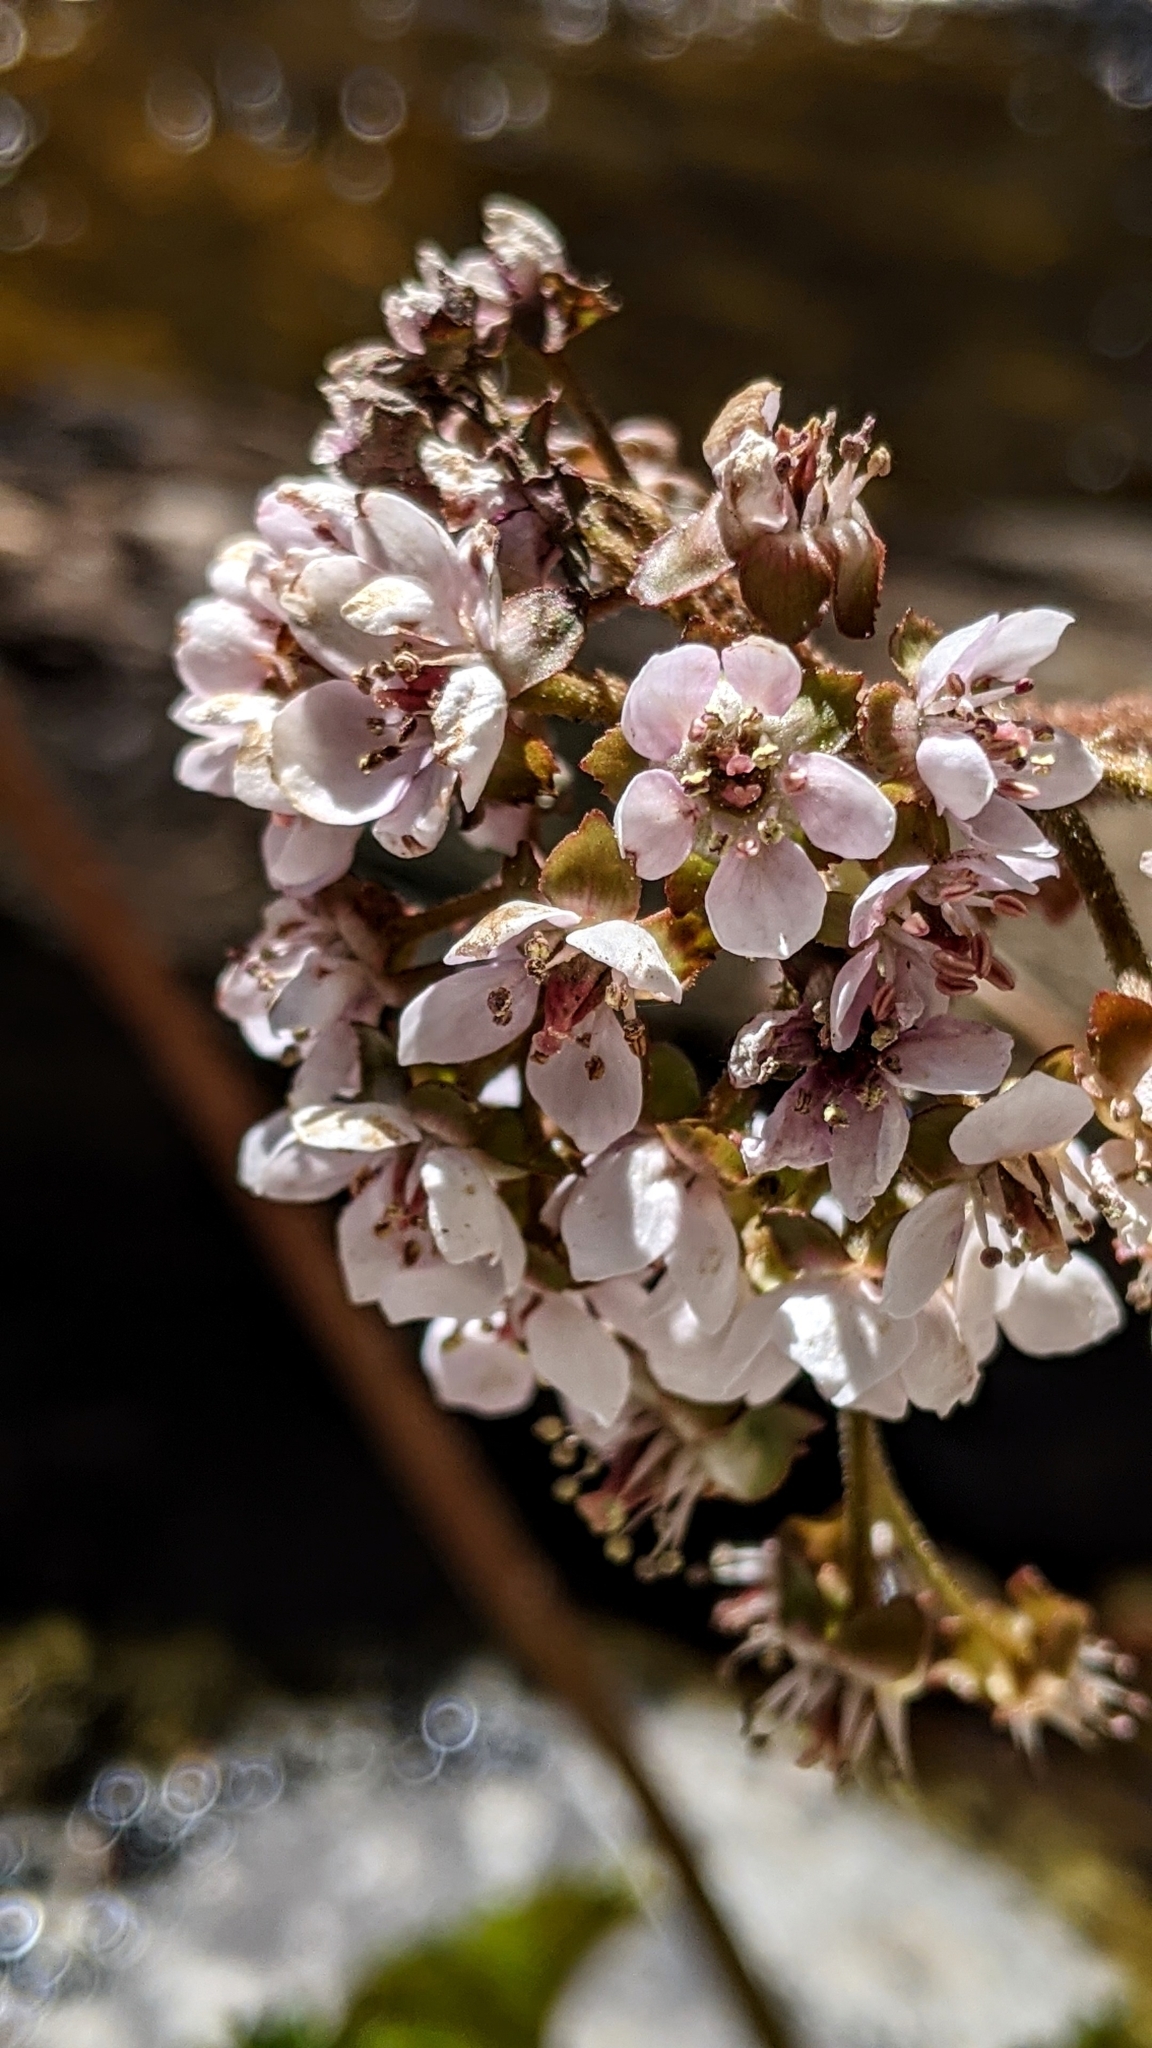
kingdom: Plantae
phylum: Tracheophyta
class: Magnoliopsida
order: Saxifragales
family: Saxifragaceae
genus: Darmera
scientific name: Darmera peltata
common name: Indian-rhubarb
